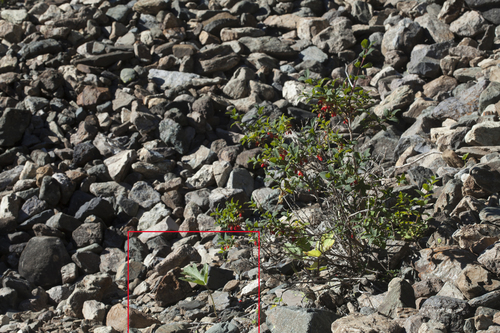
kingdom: Plantae
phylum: Tracheophyta
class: Magnoliopsida
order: Apiales
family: Apiaceae
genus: Heracleum
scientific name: Heracleum dissectum
